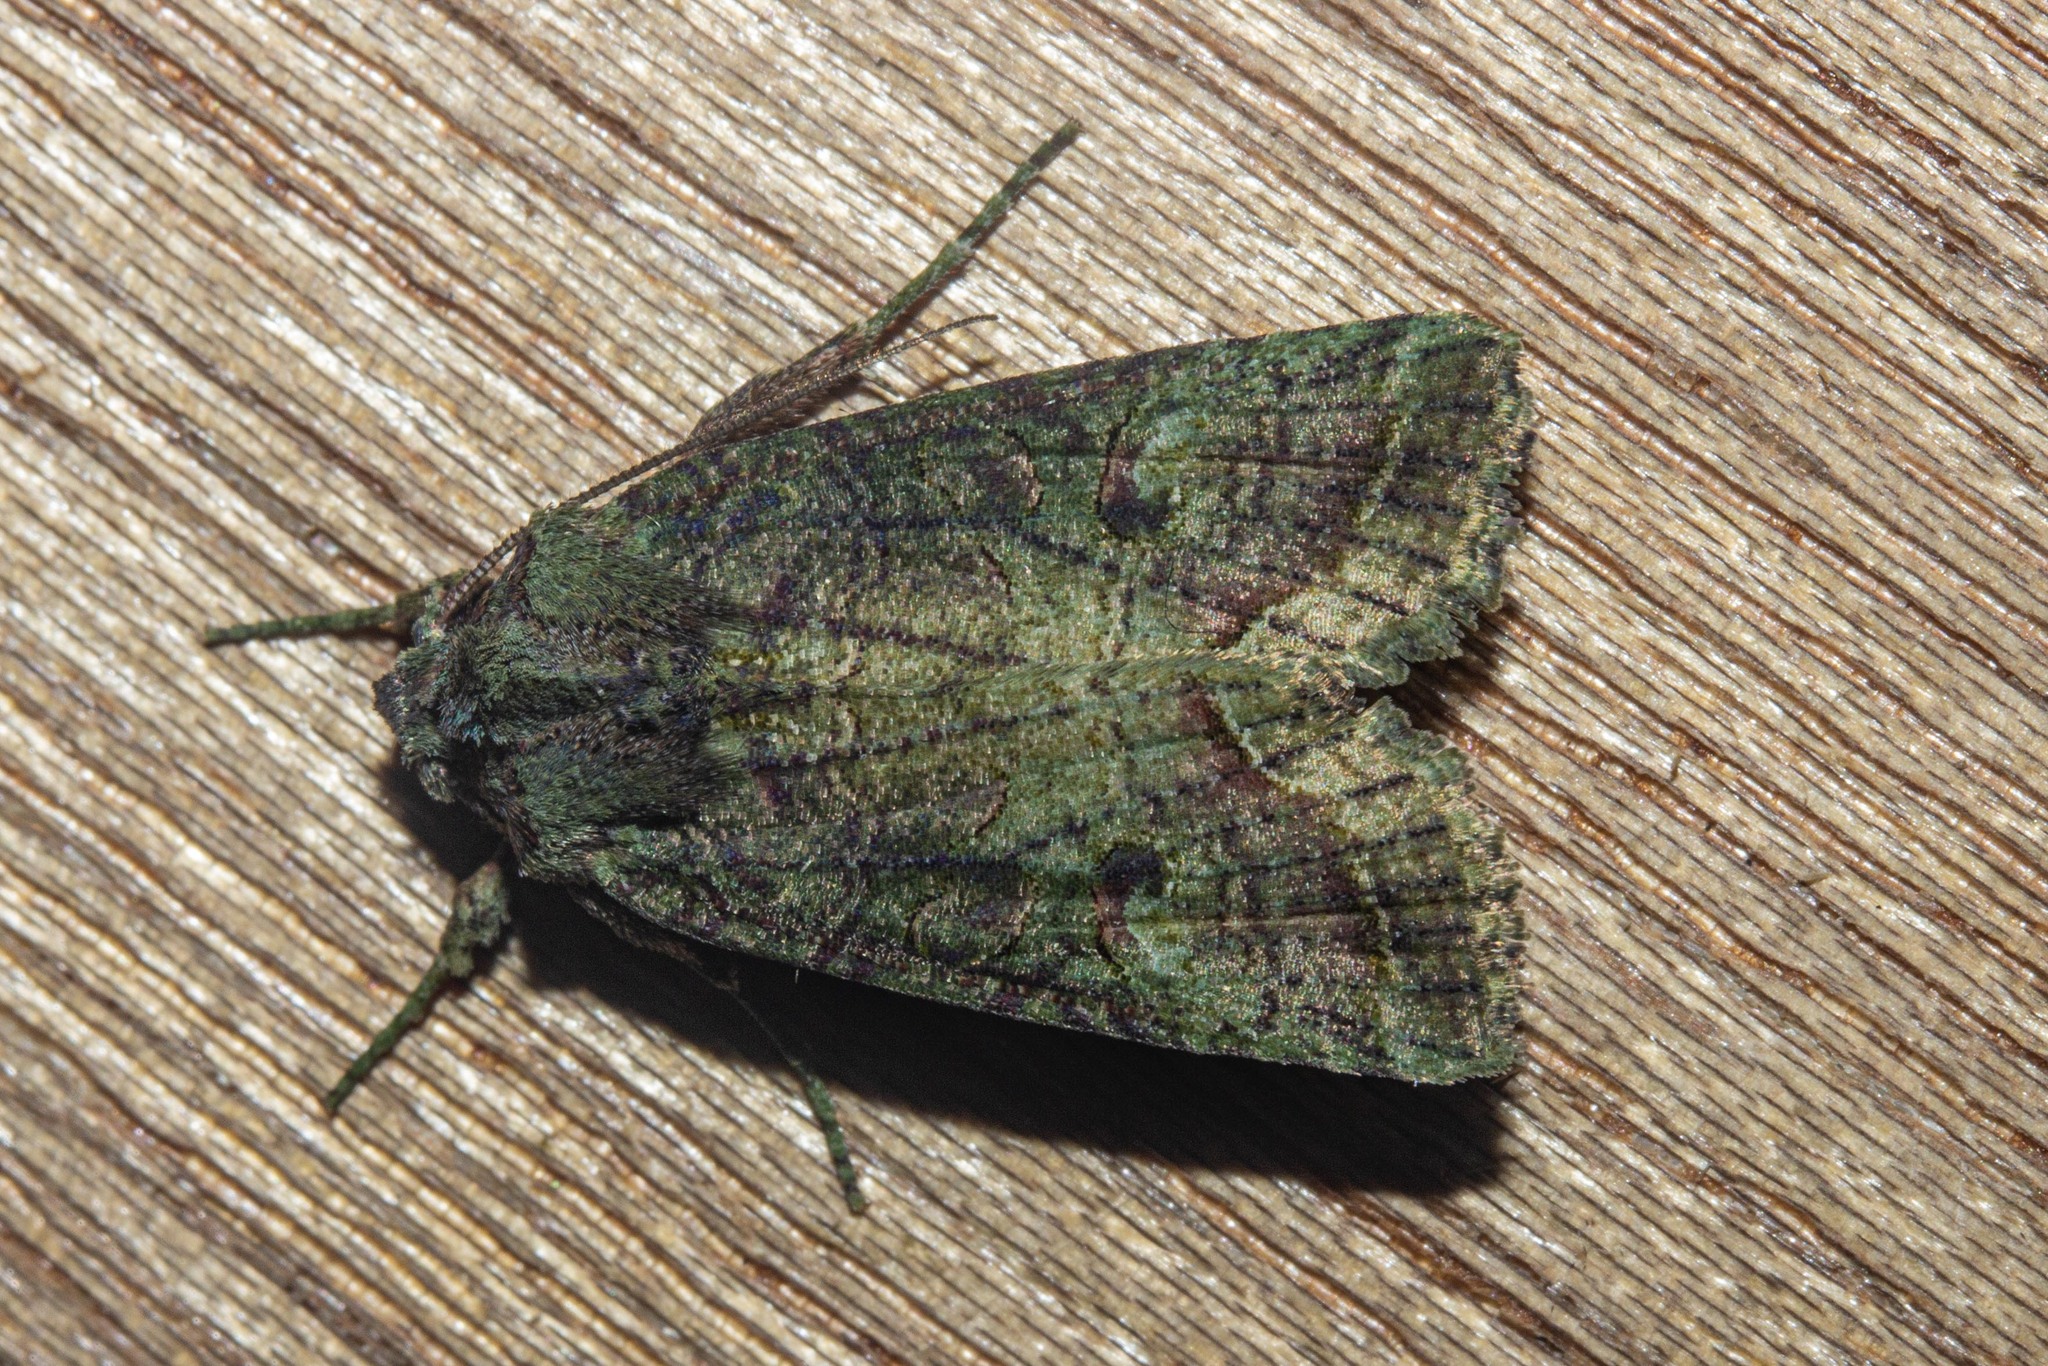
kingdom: Animalia
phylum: Arthropoda
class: Insecta
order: Lepidoptera
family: Noctuidae
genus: Meterana
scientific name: Meterana levis
